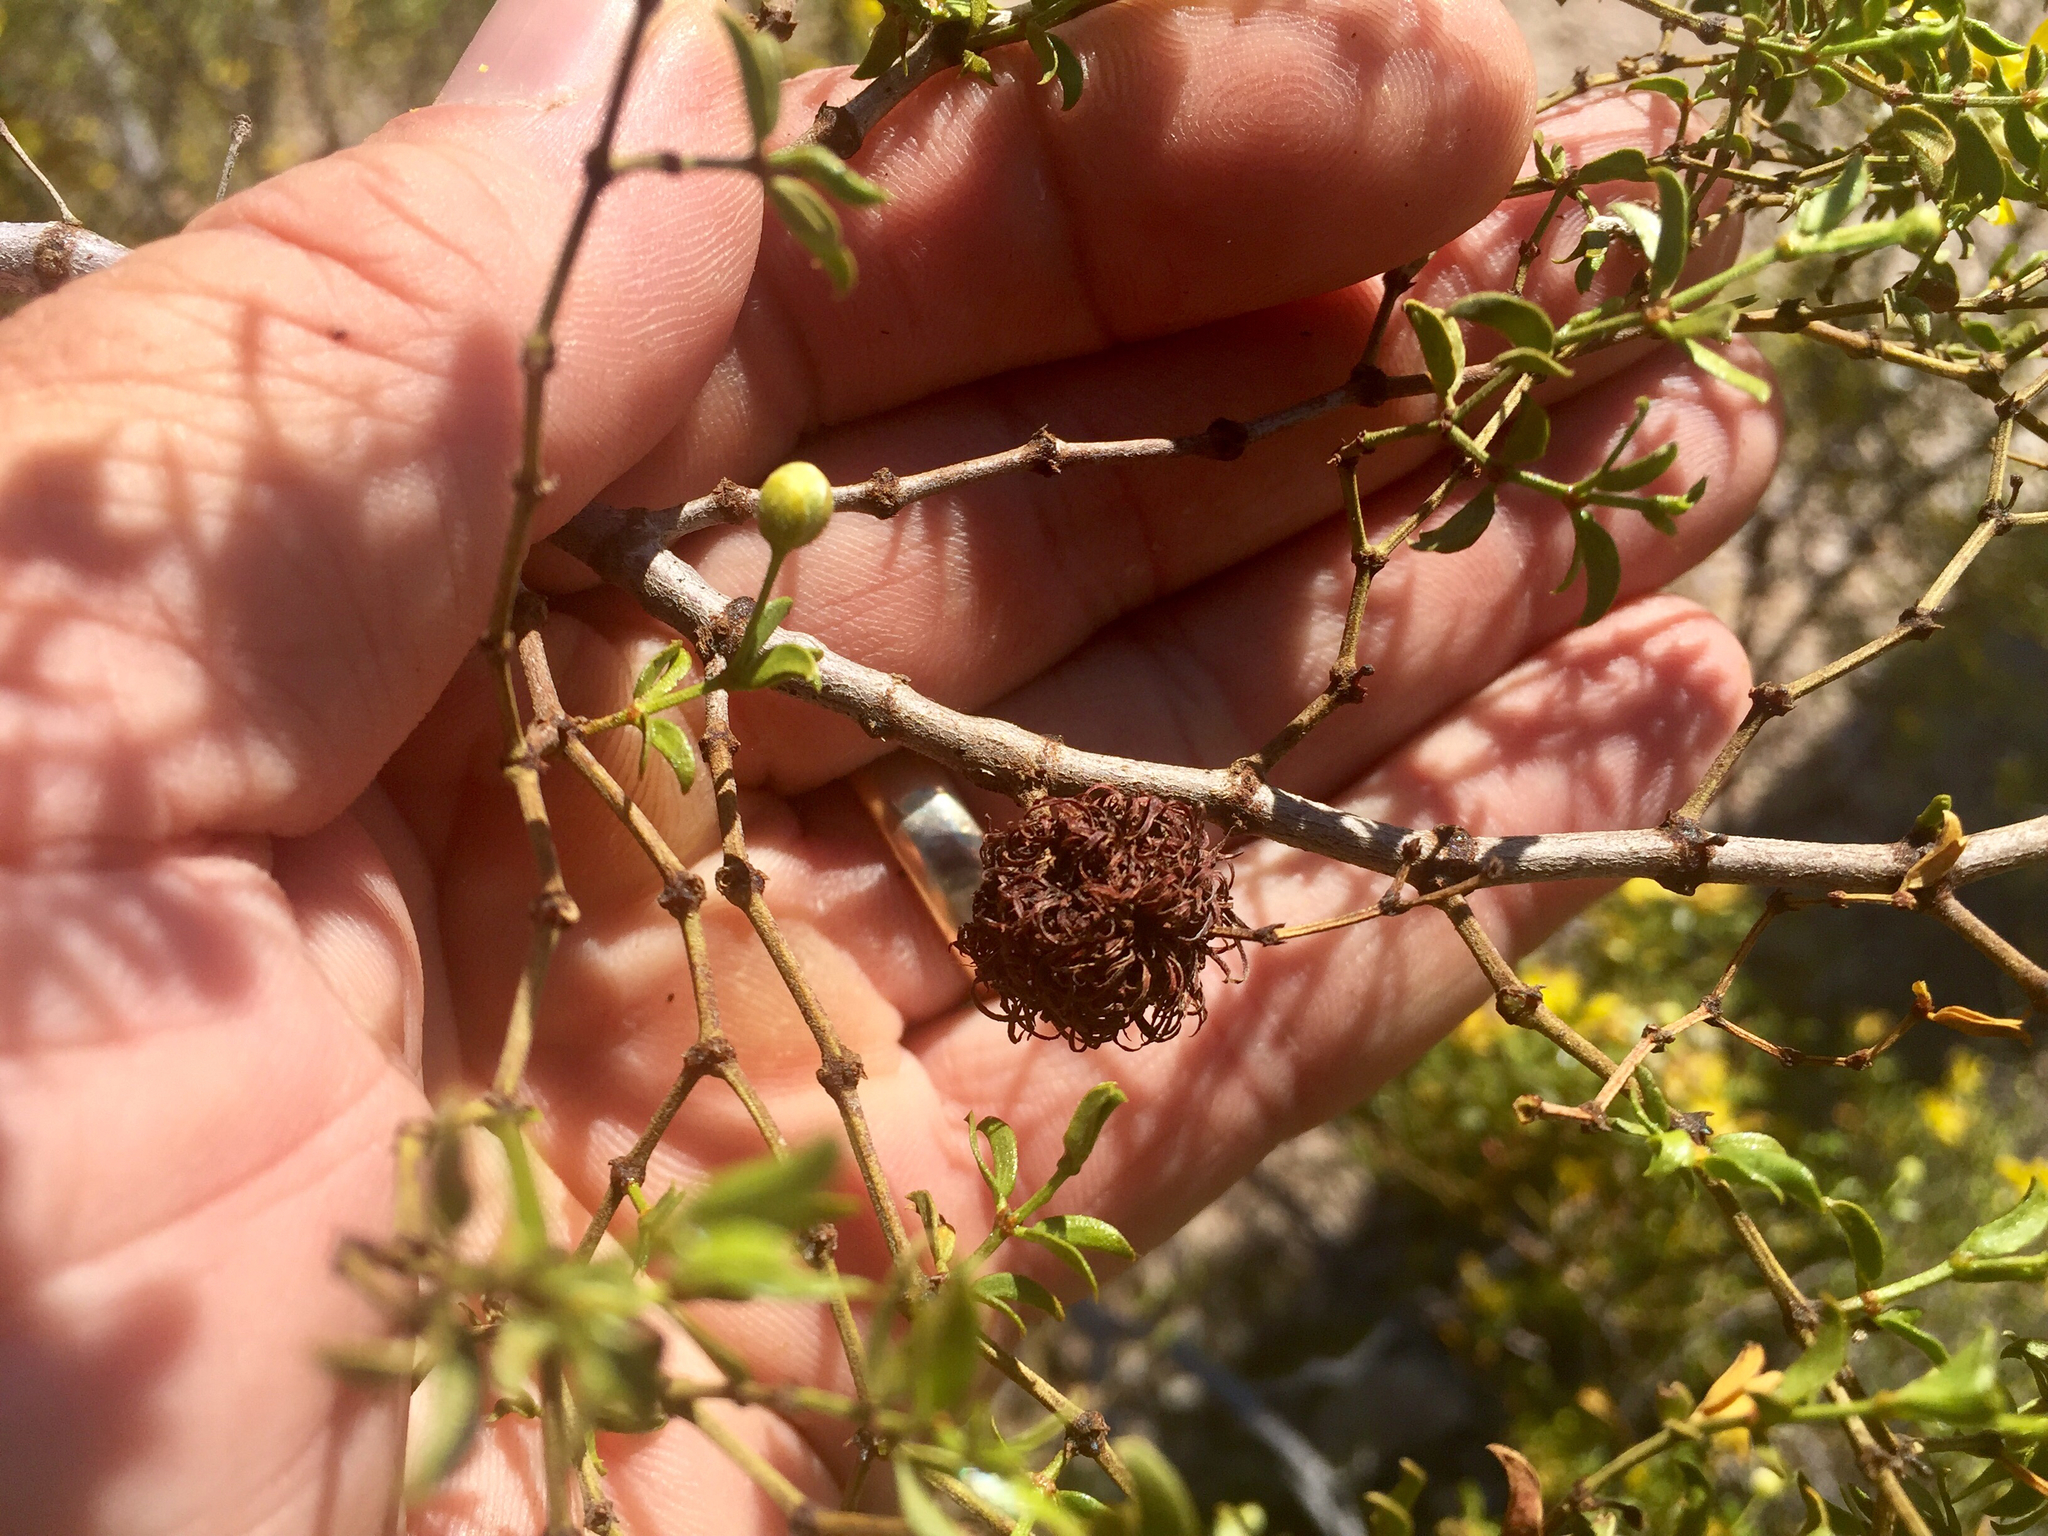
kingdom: Animalia
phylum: Arthropoda
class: Insecta
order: Diptera
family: Cecidomyiidae
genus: Asphondylia
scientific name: Asphondylia auripila
